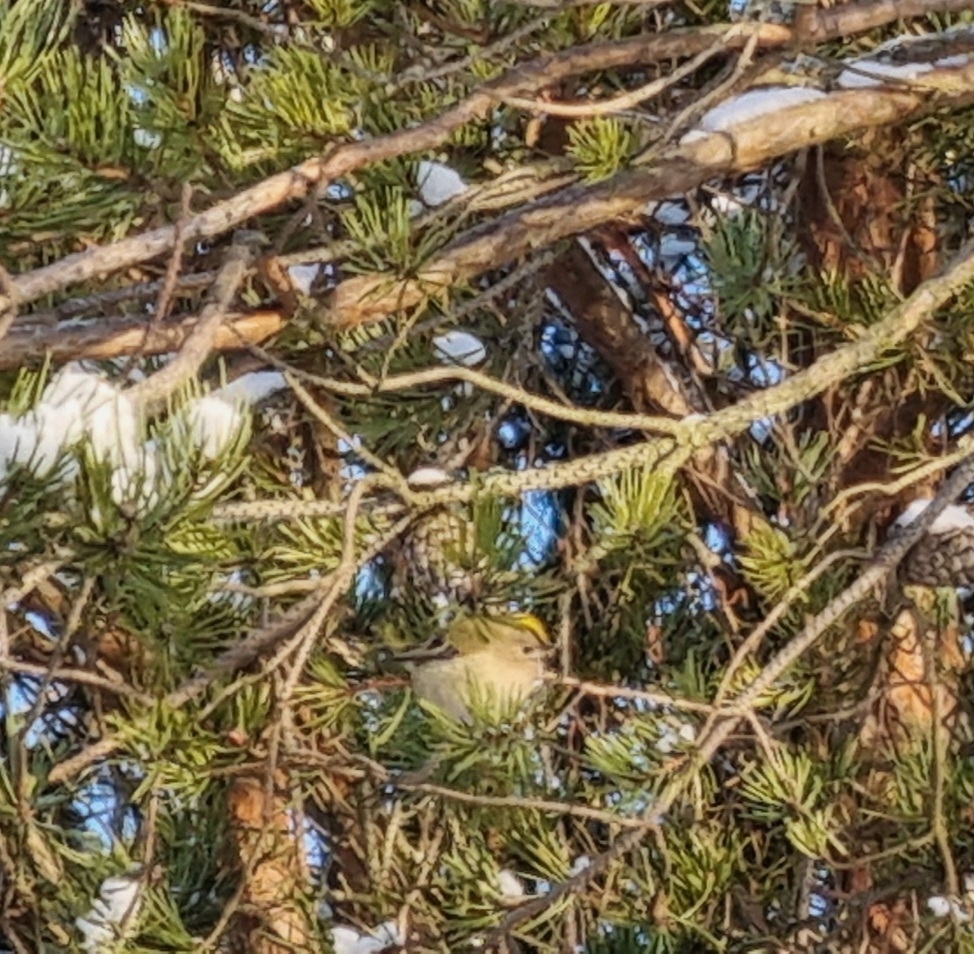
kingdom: Animalia
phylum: Chordata
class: Aves
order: Passeriformes
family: Regulidae
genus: Regulus
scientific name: Regulus regulus
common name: Goldcrest
